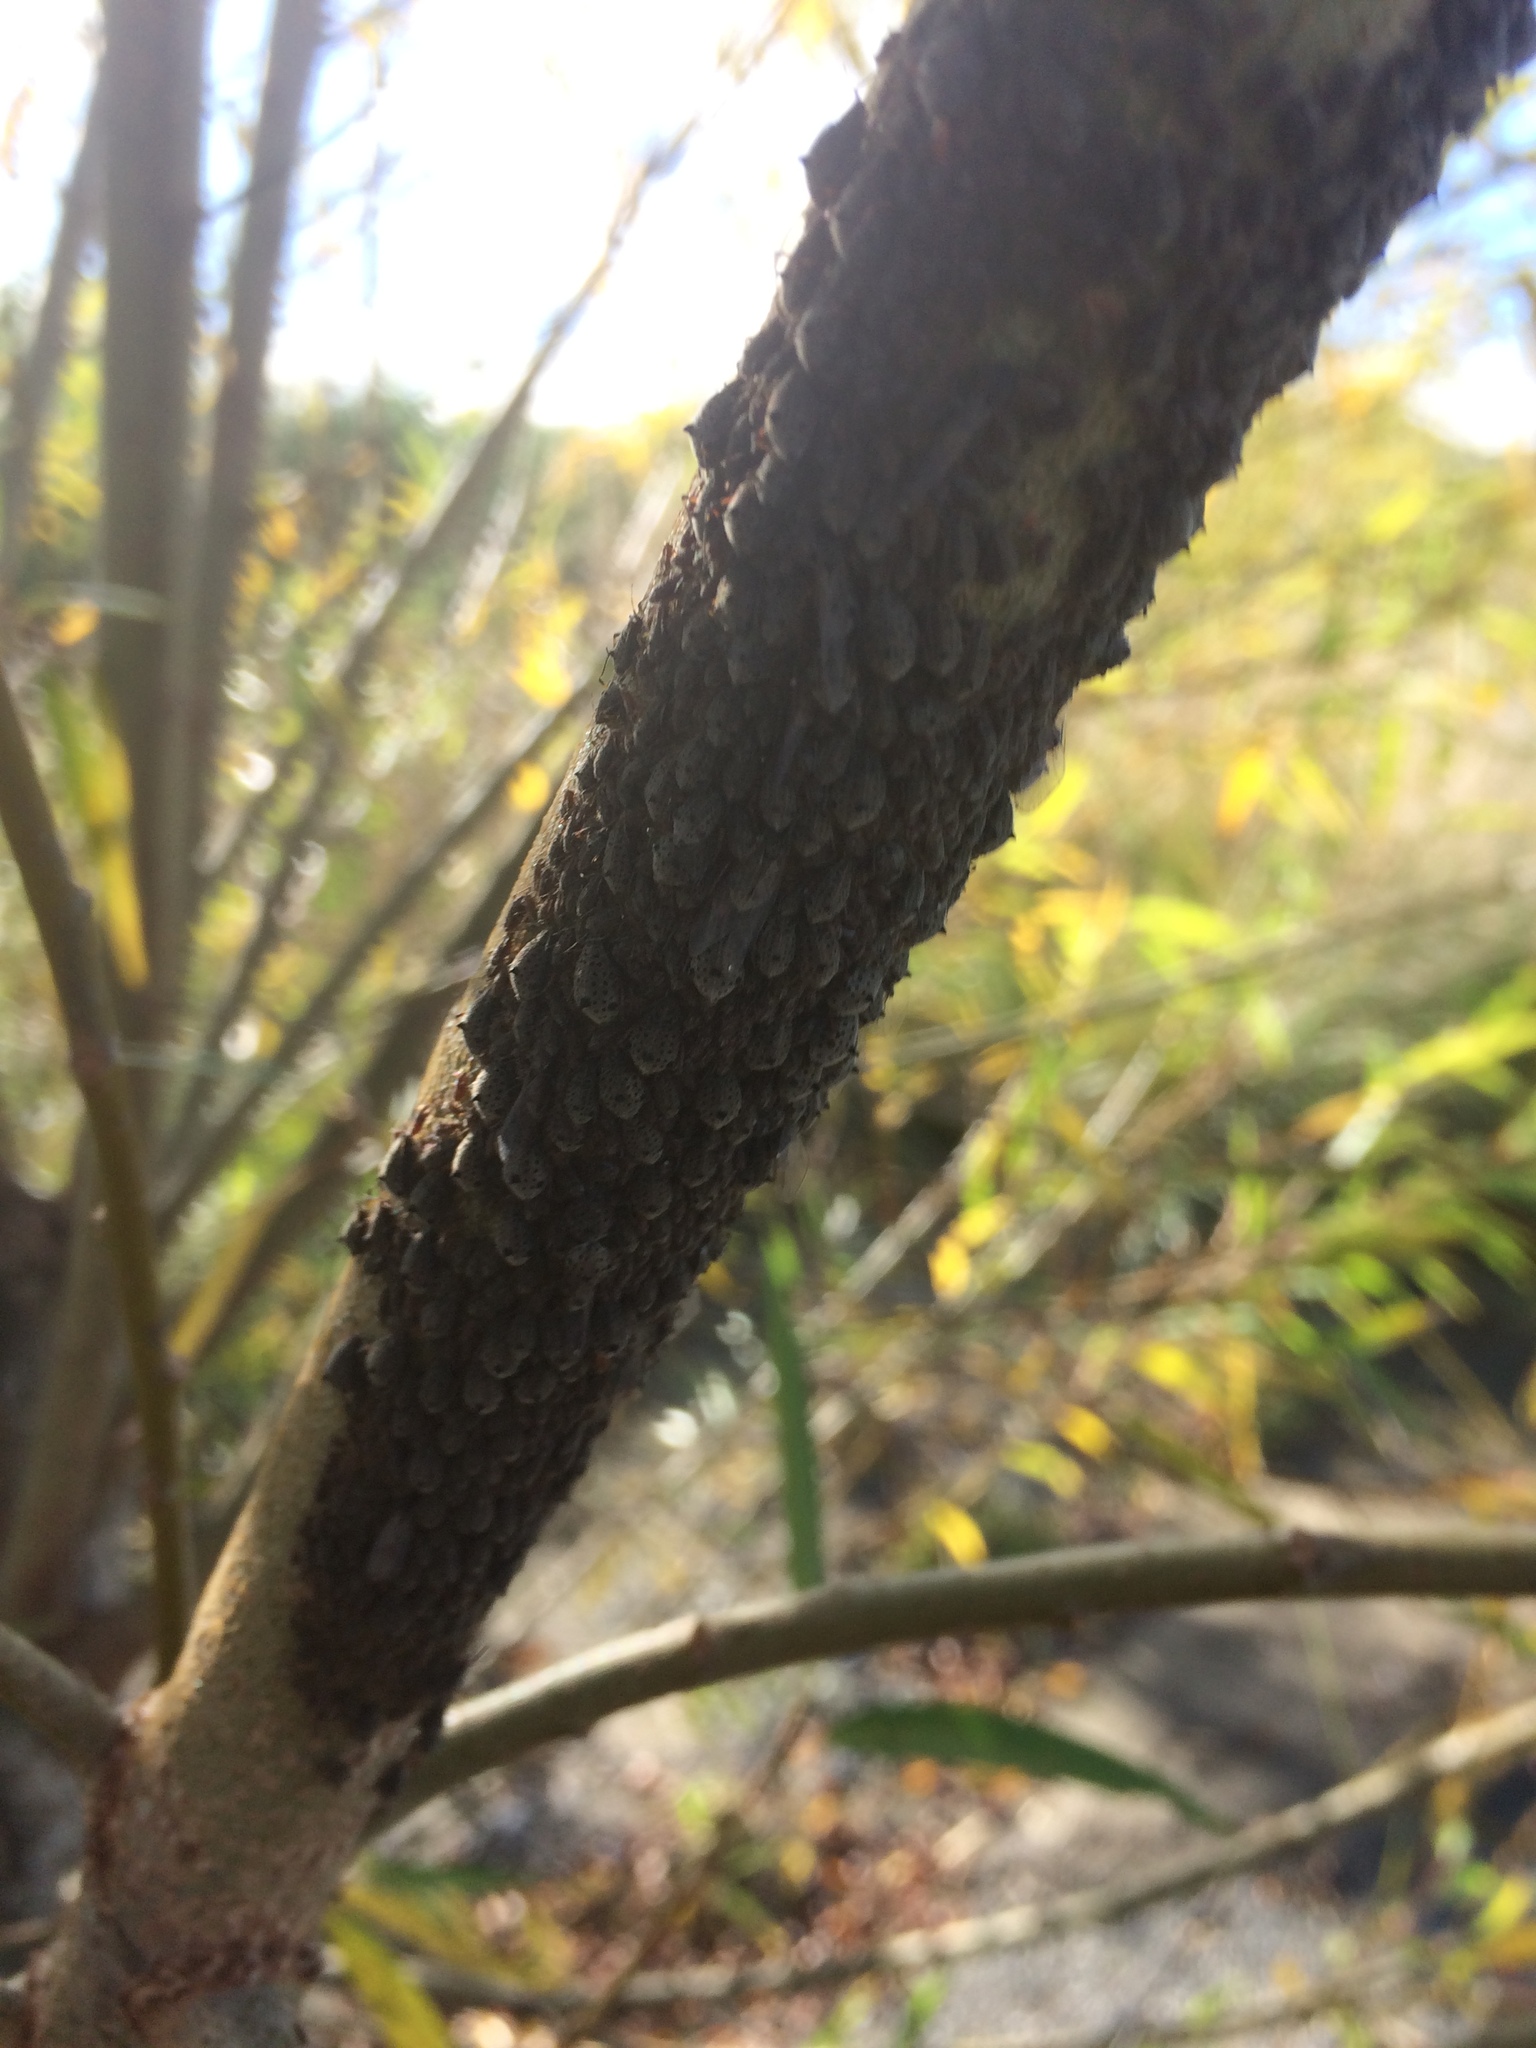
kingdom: Animalia
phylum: Arthropoda
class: Insecta
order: Hemiptera
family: Aphididae
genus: Tuberolachnus
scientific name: Tuberolachnus salignus
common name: Giant willow aphid
